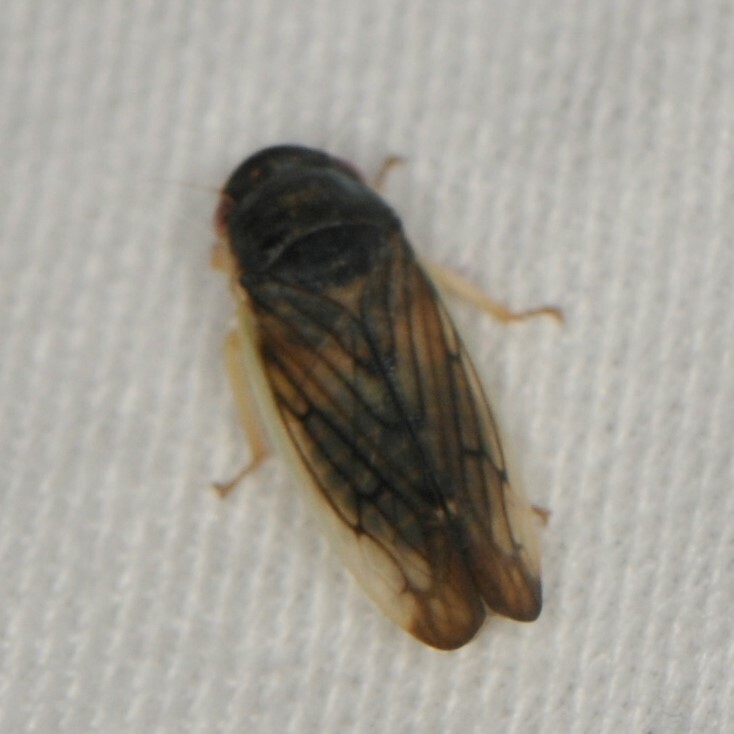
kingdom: Animalia
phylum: Arthropoda
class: Insecta
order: Hemiptera
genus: Obtusana
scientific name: Obtusana
